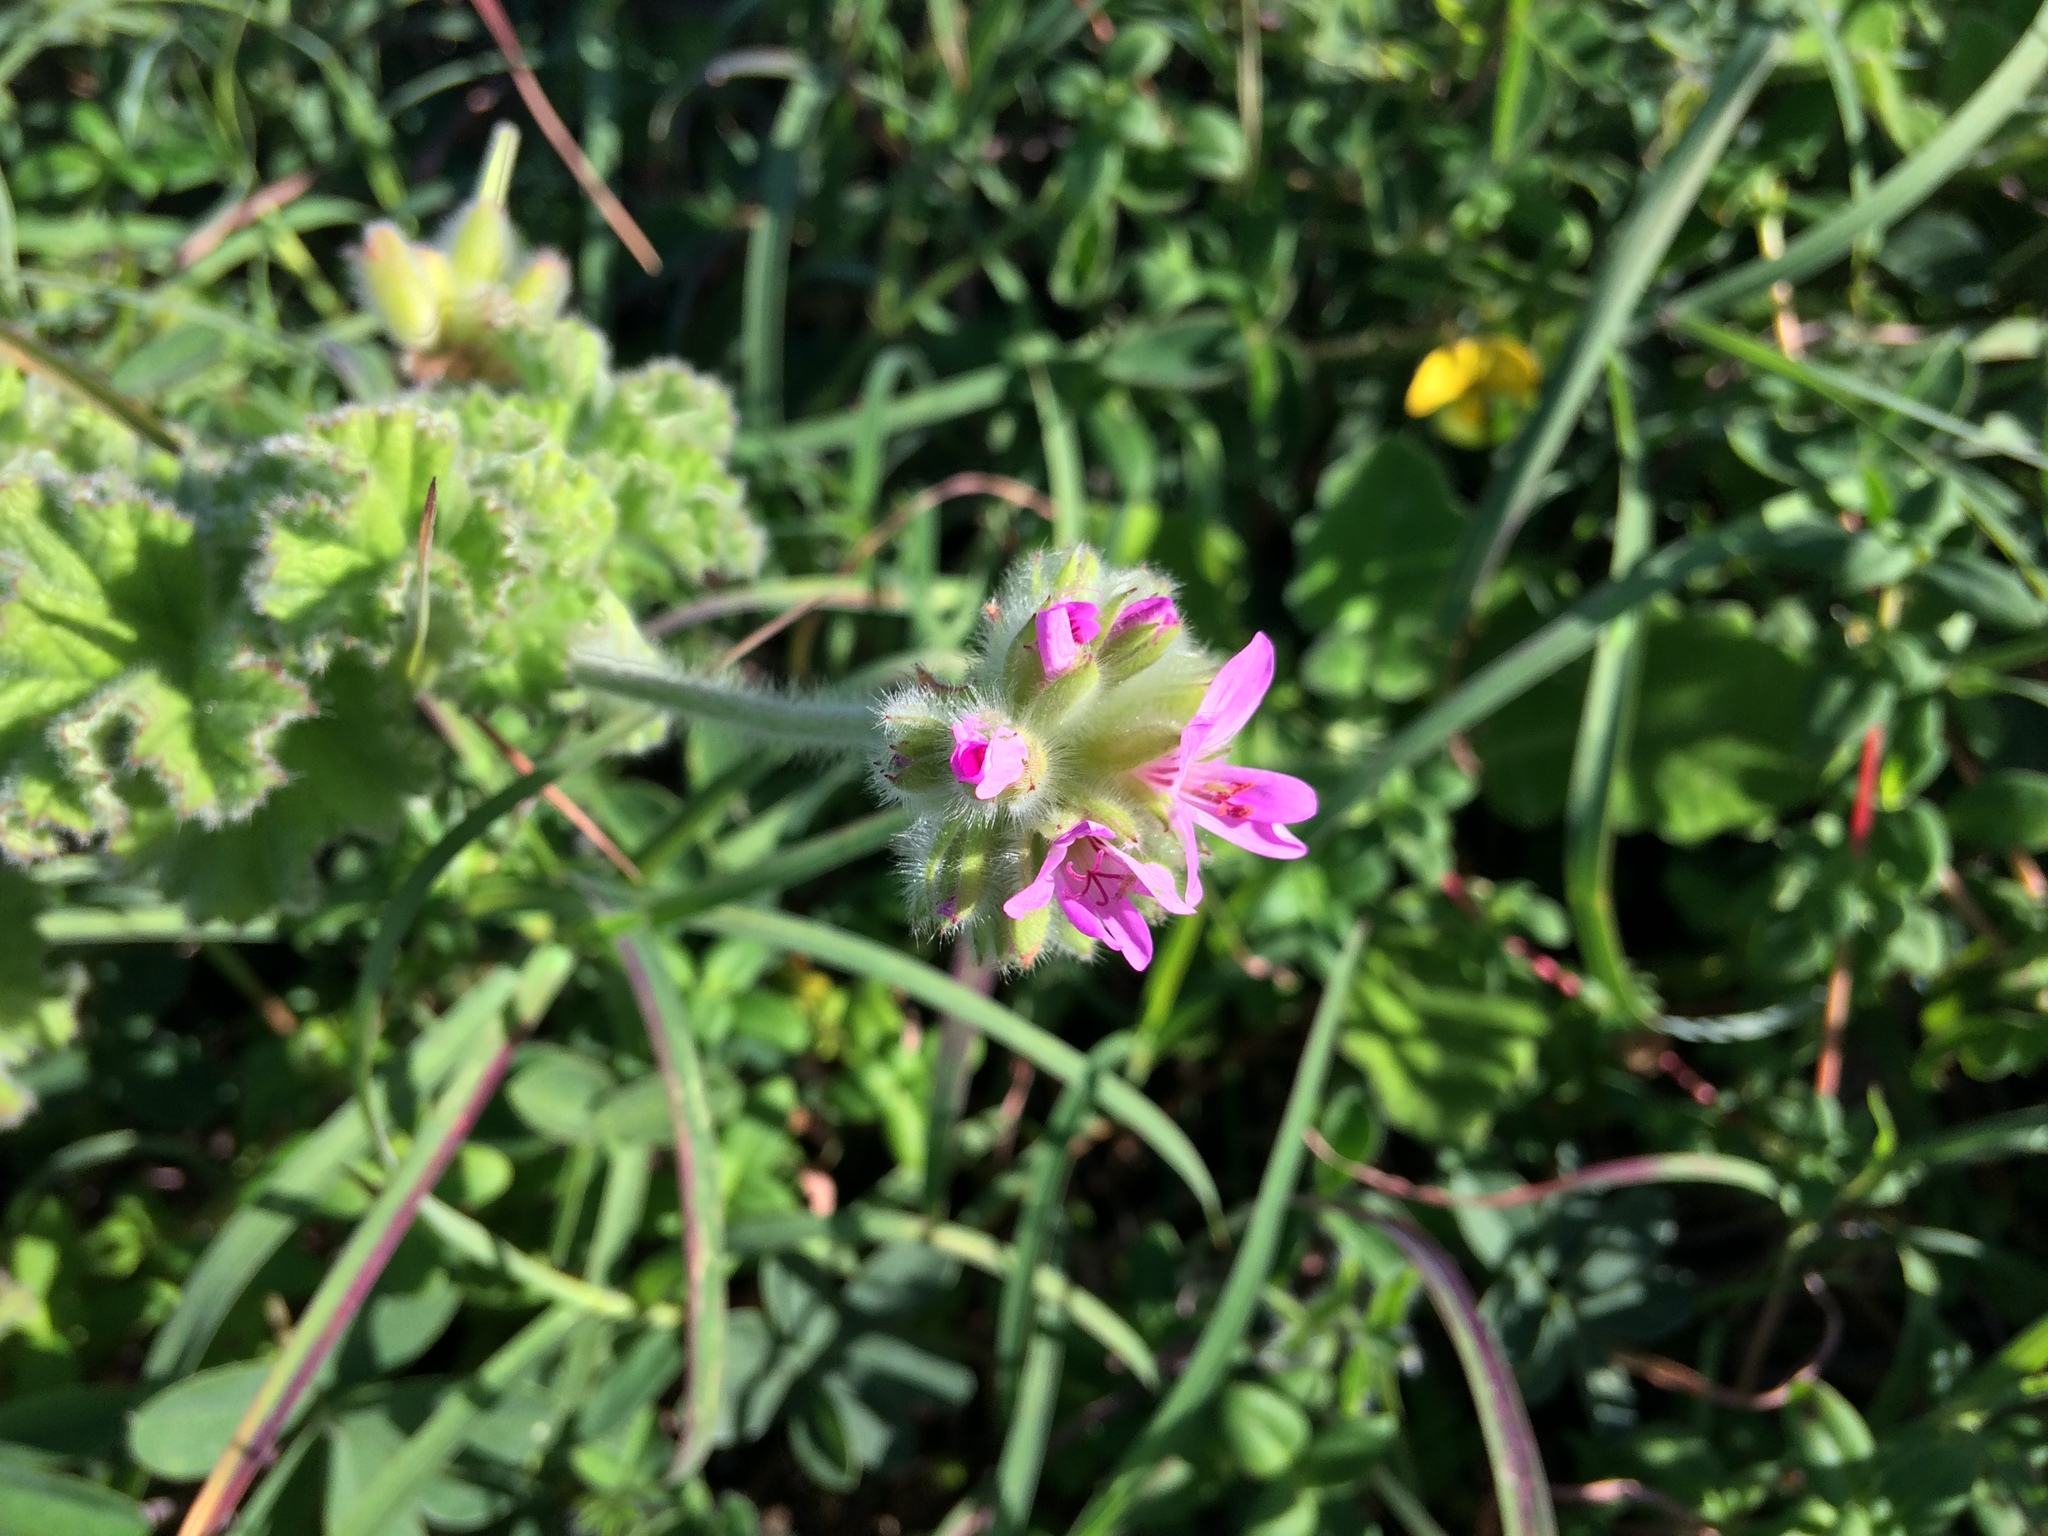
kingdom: Plantae
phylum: Tracheophyta
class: Magnoliopsida
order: Geraniales
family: Geraniaceae
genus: Pelargonium
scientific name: Pelargonium capitatum
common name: Rose scented geranium
